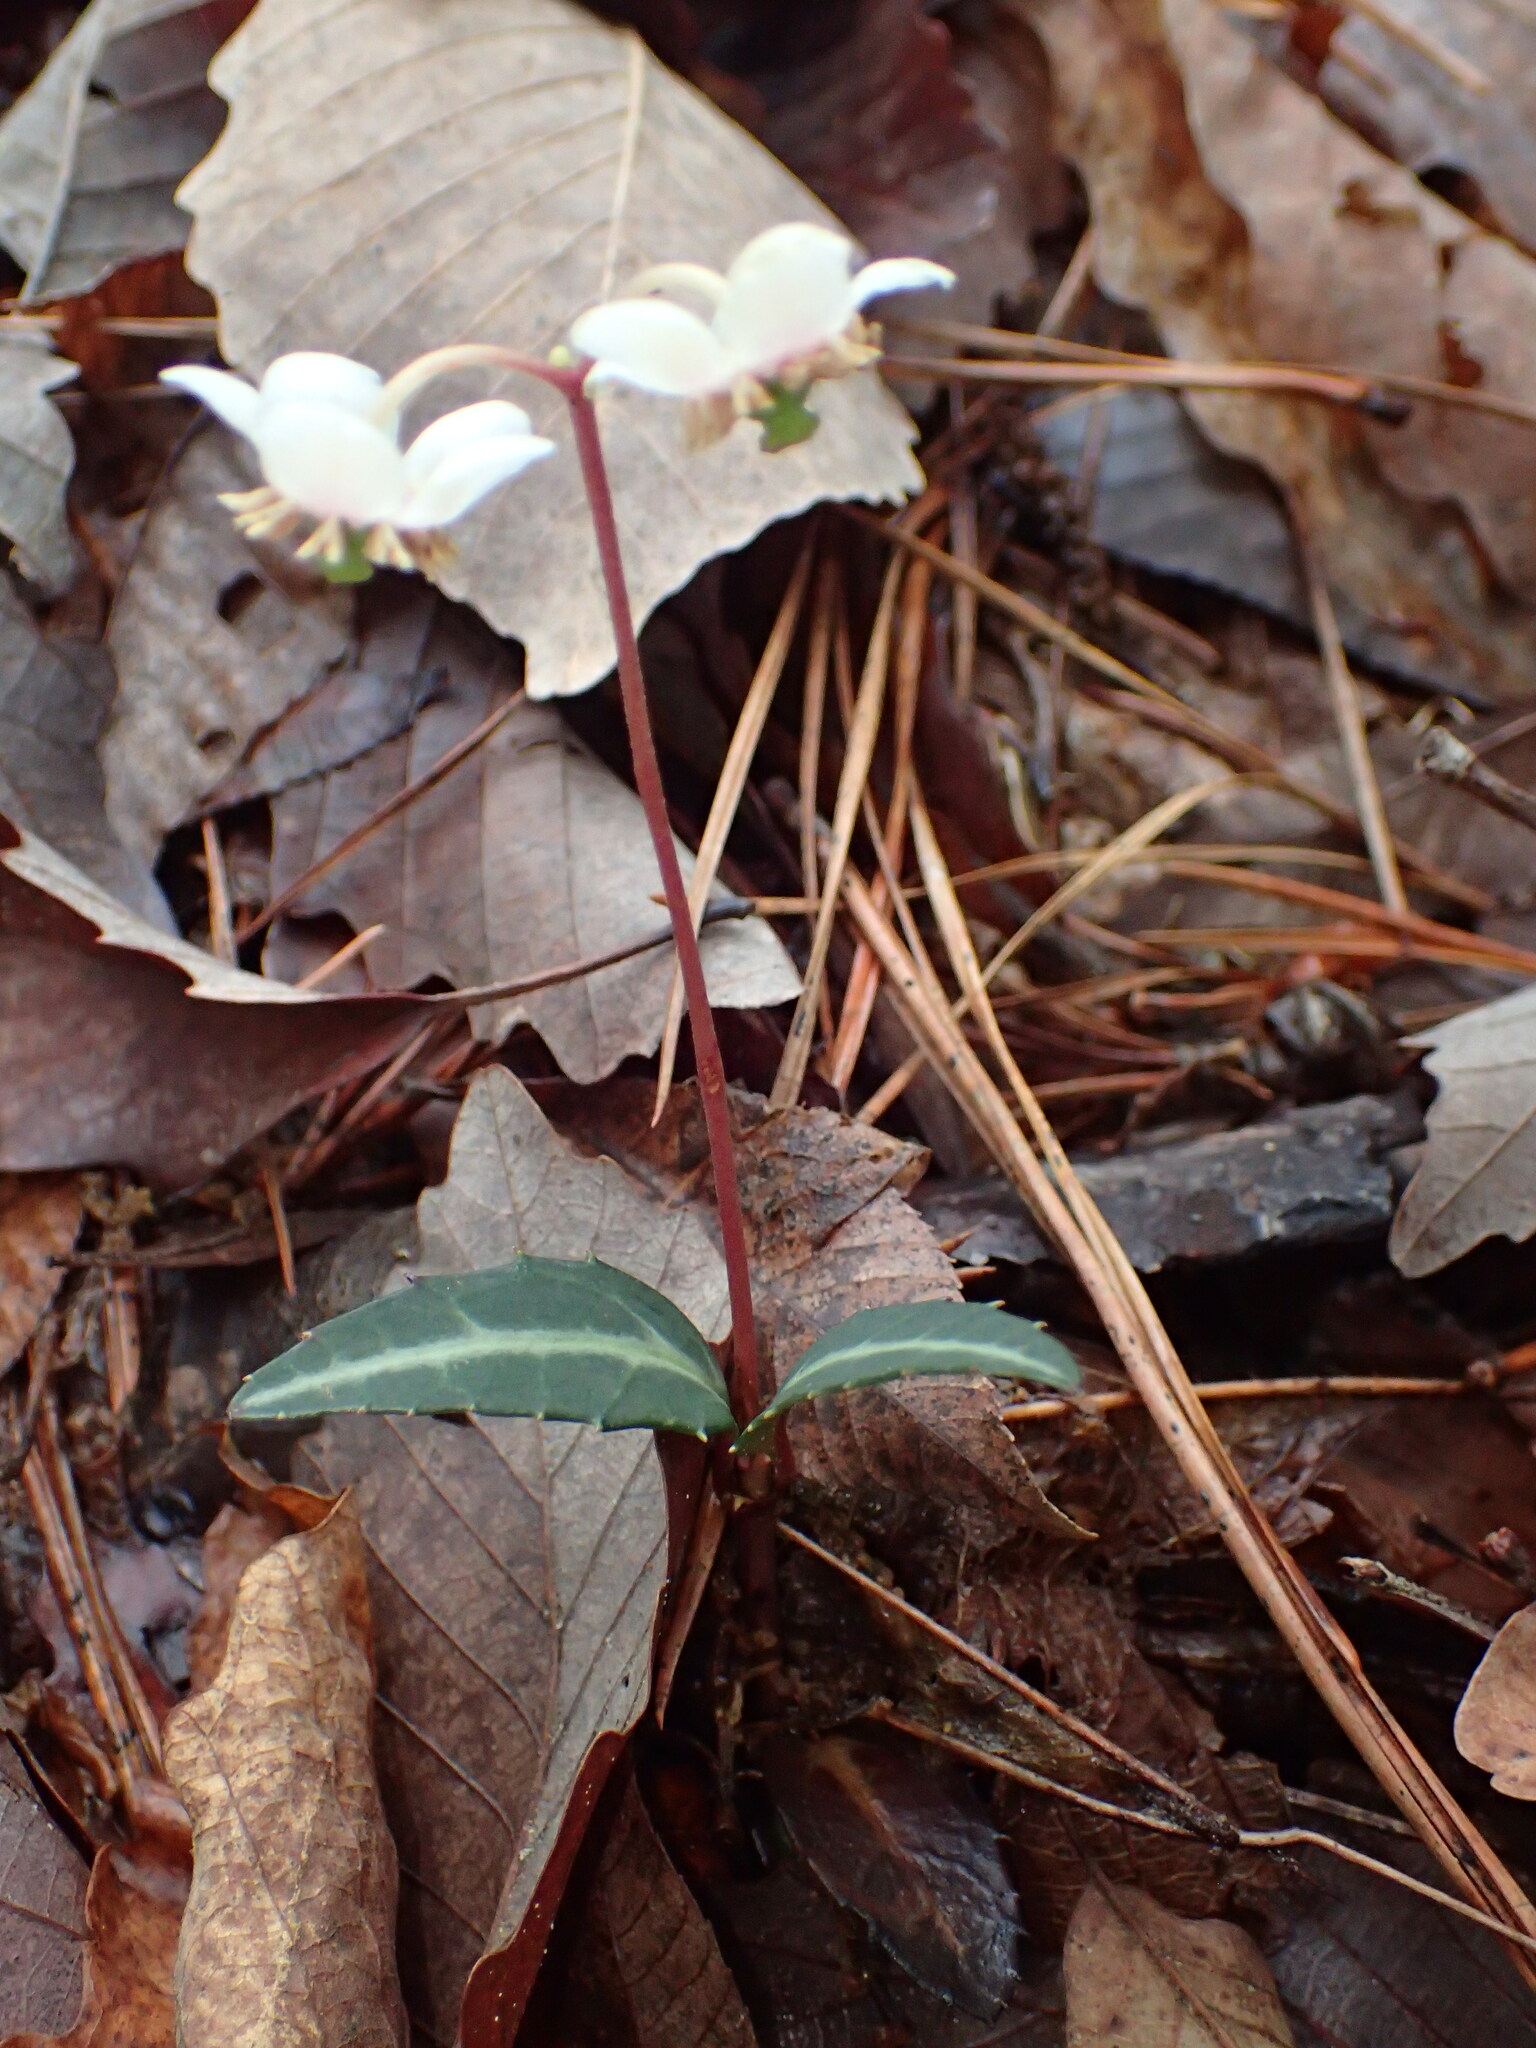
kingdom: Plantae
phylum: Tracheophyta
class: Magnoliopsida
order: Ericales
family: Ericaceae
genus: Chimaphila
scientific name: Chimaphila maculata
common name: Spotted pipsissewa
